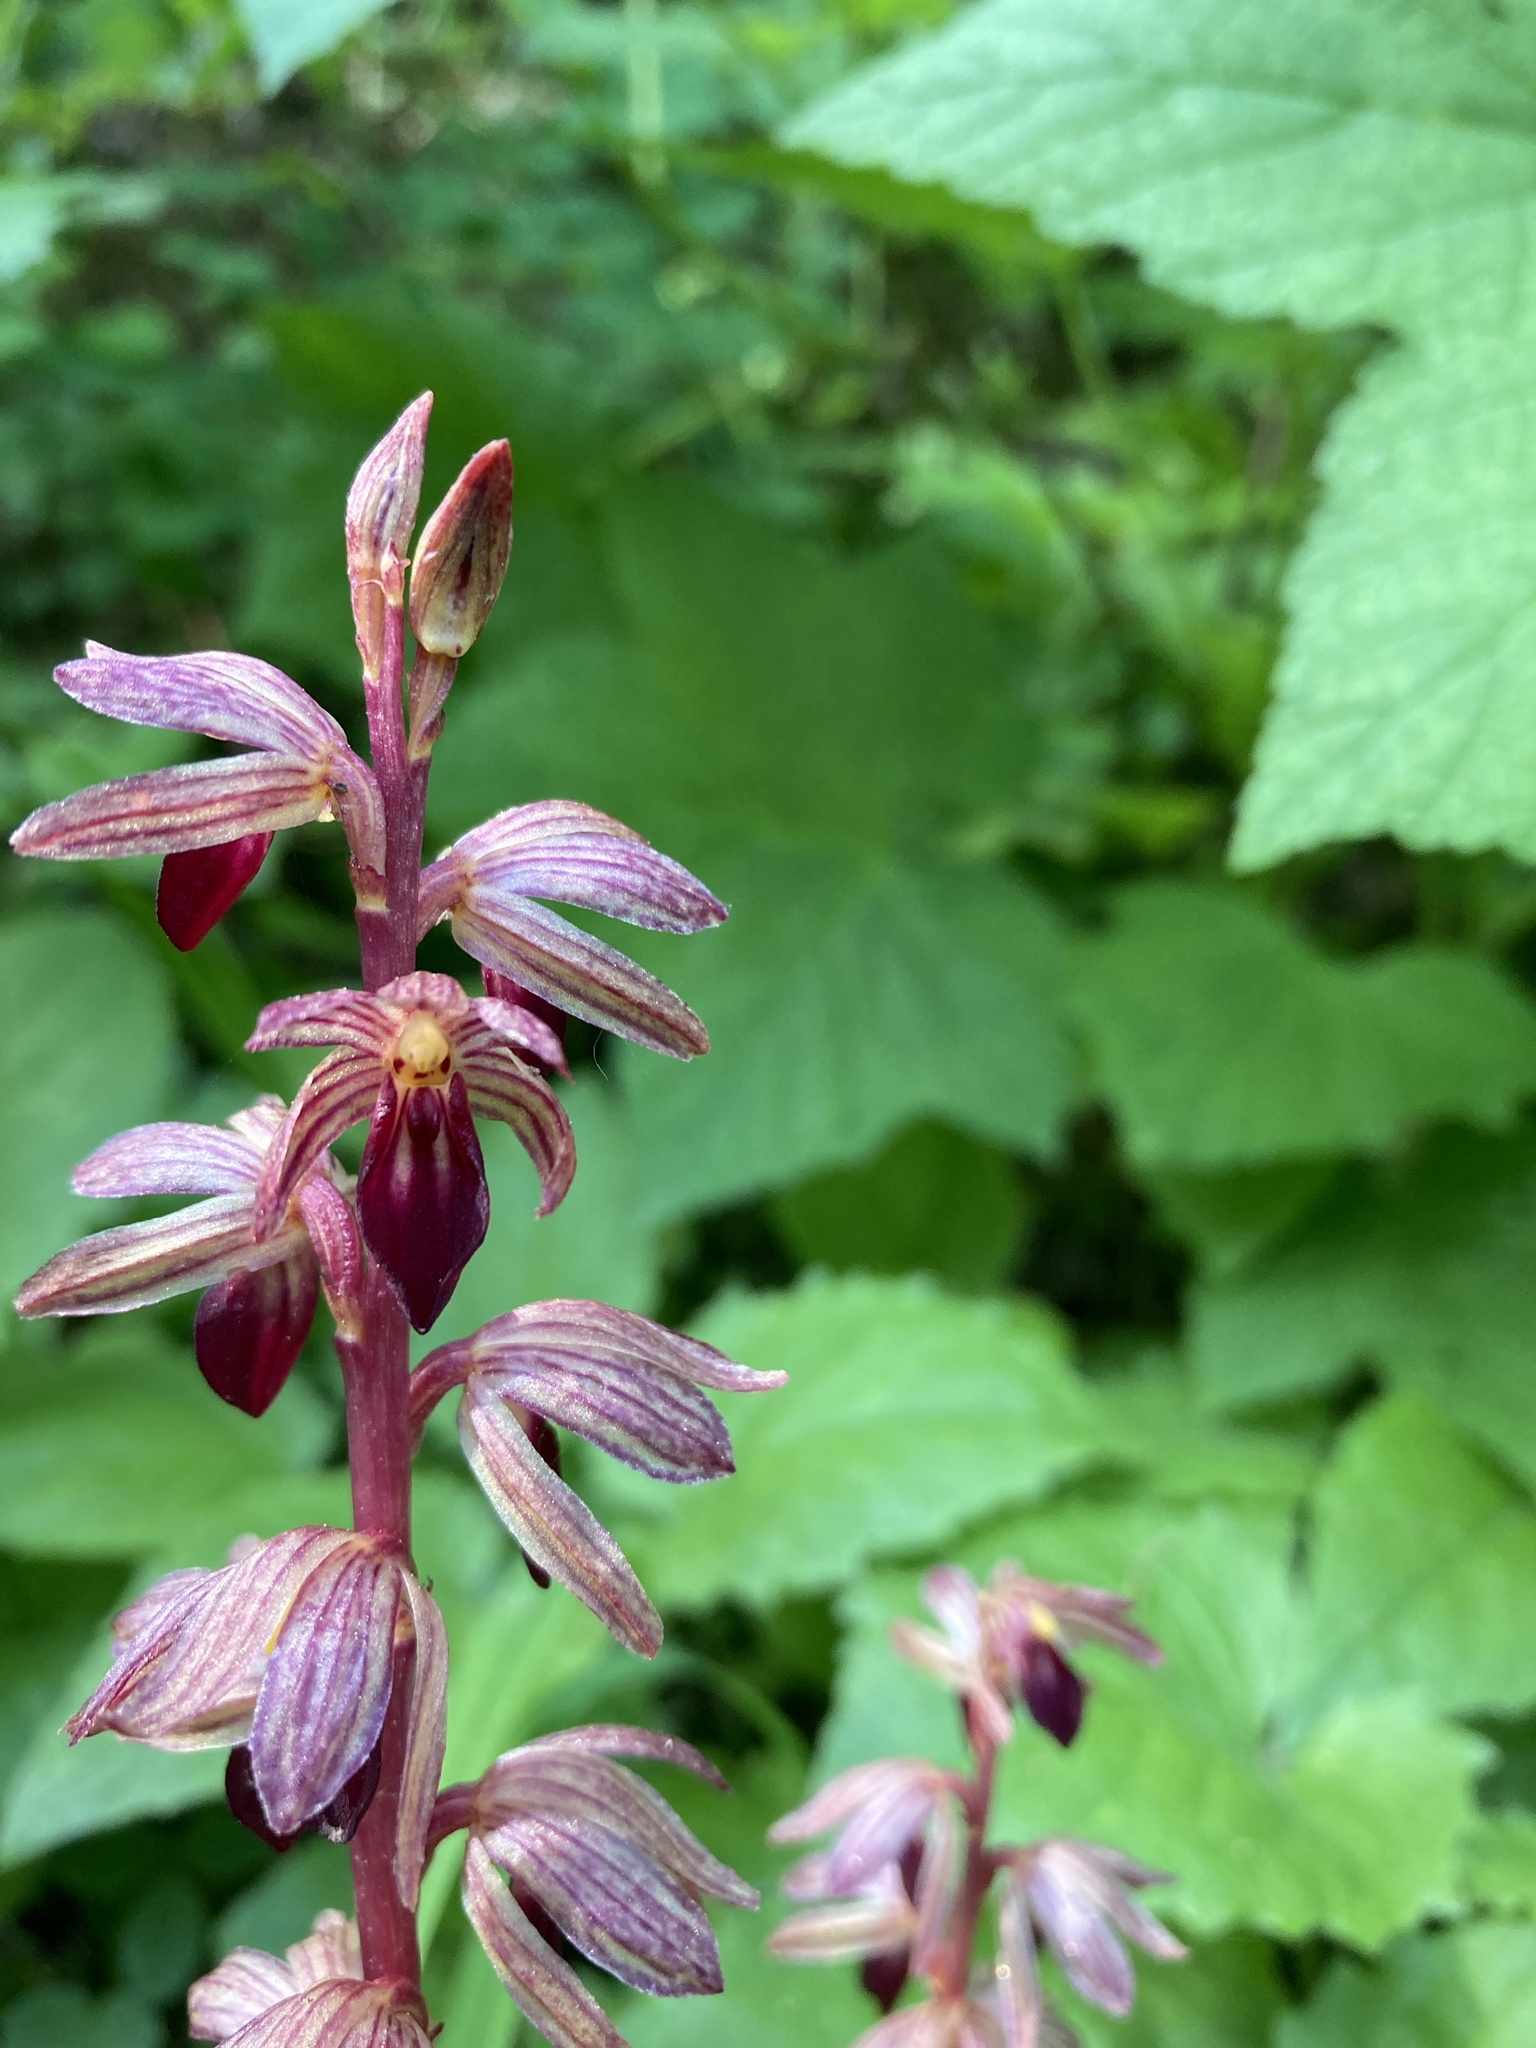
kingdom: Plantae
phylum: Tracheophyta
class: Liliopsida
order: Asparagales
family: Orchidaceae
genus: Corallorhiza
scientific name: Corallorhiza striata
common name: Hooded coralroot
